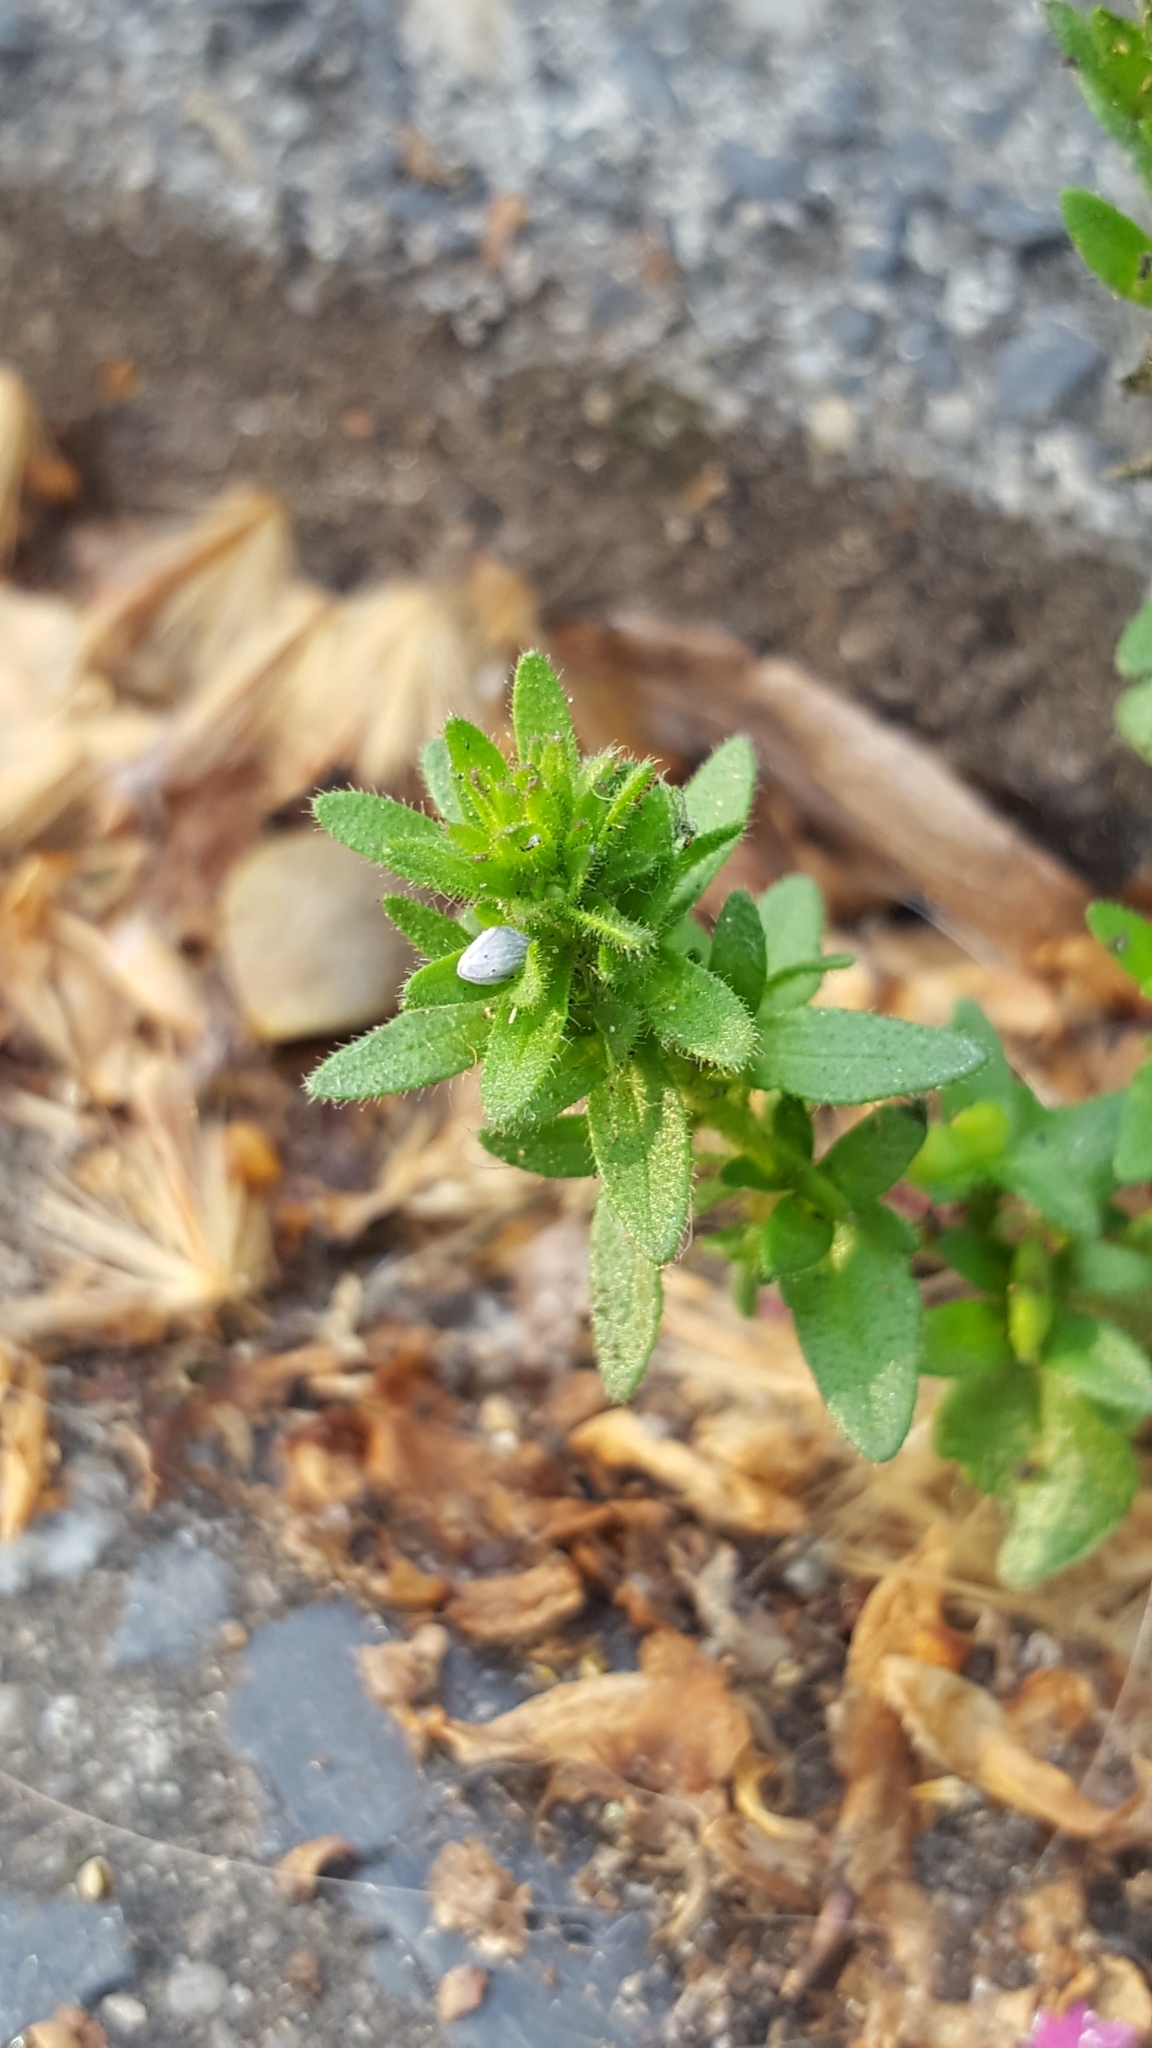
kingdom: Plantae
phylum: Tracheophyta
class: Magnoliopsida
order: Lamiales
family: Plantaginaceae
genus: Veronica
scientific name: Veronica arvensis
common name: Corn speedwell
